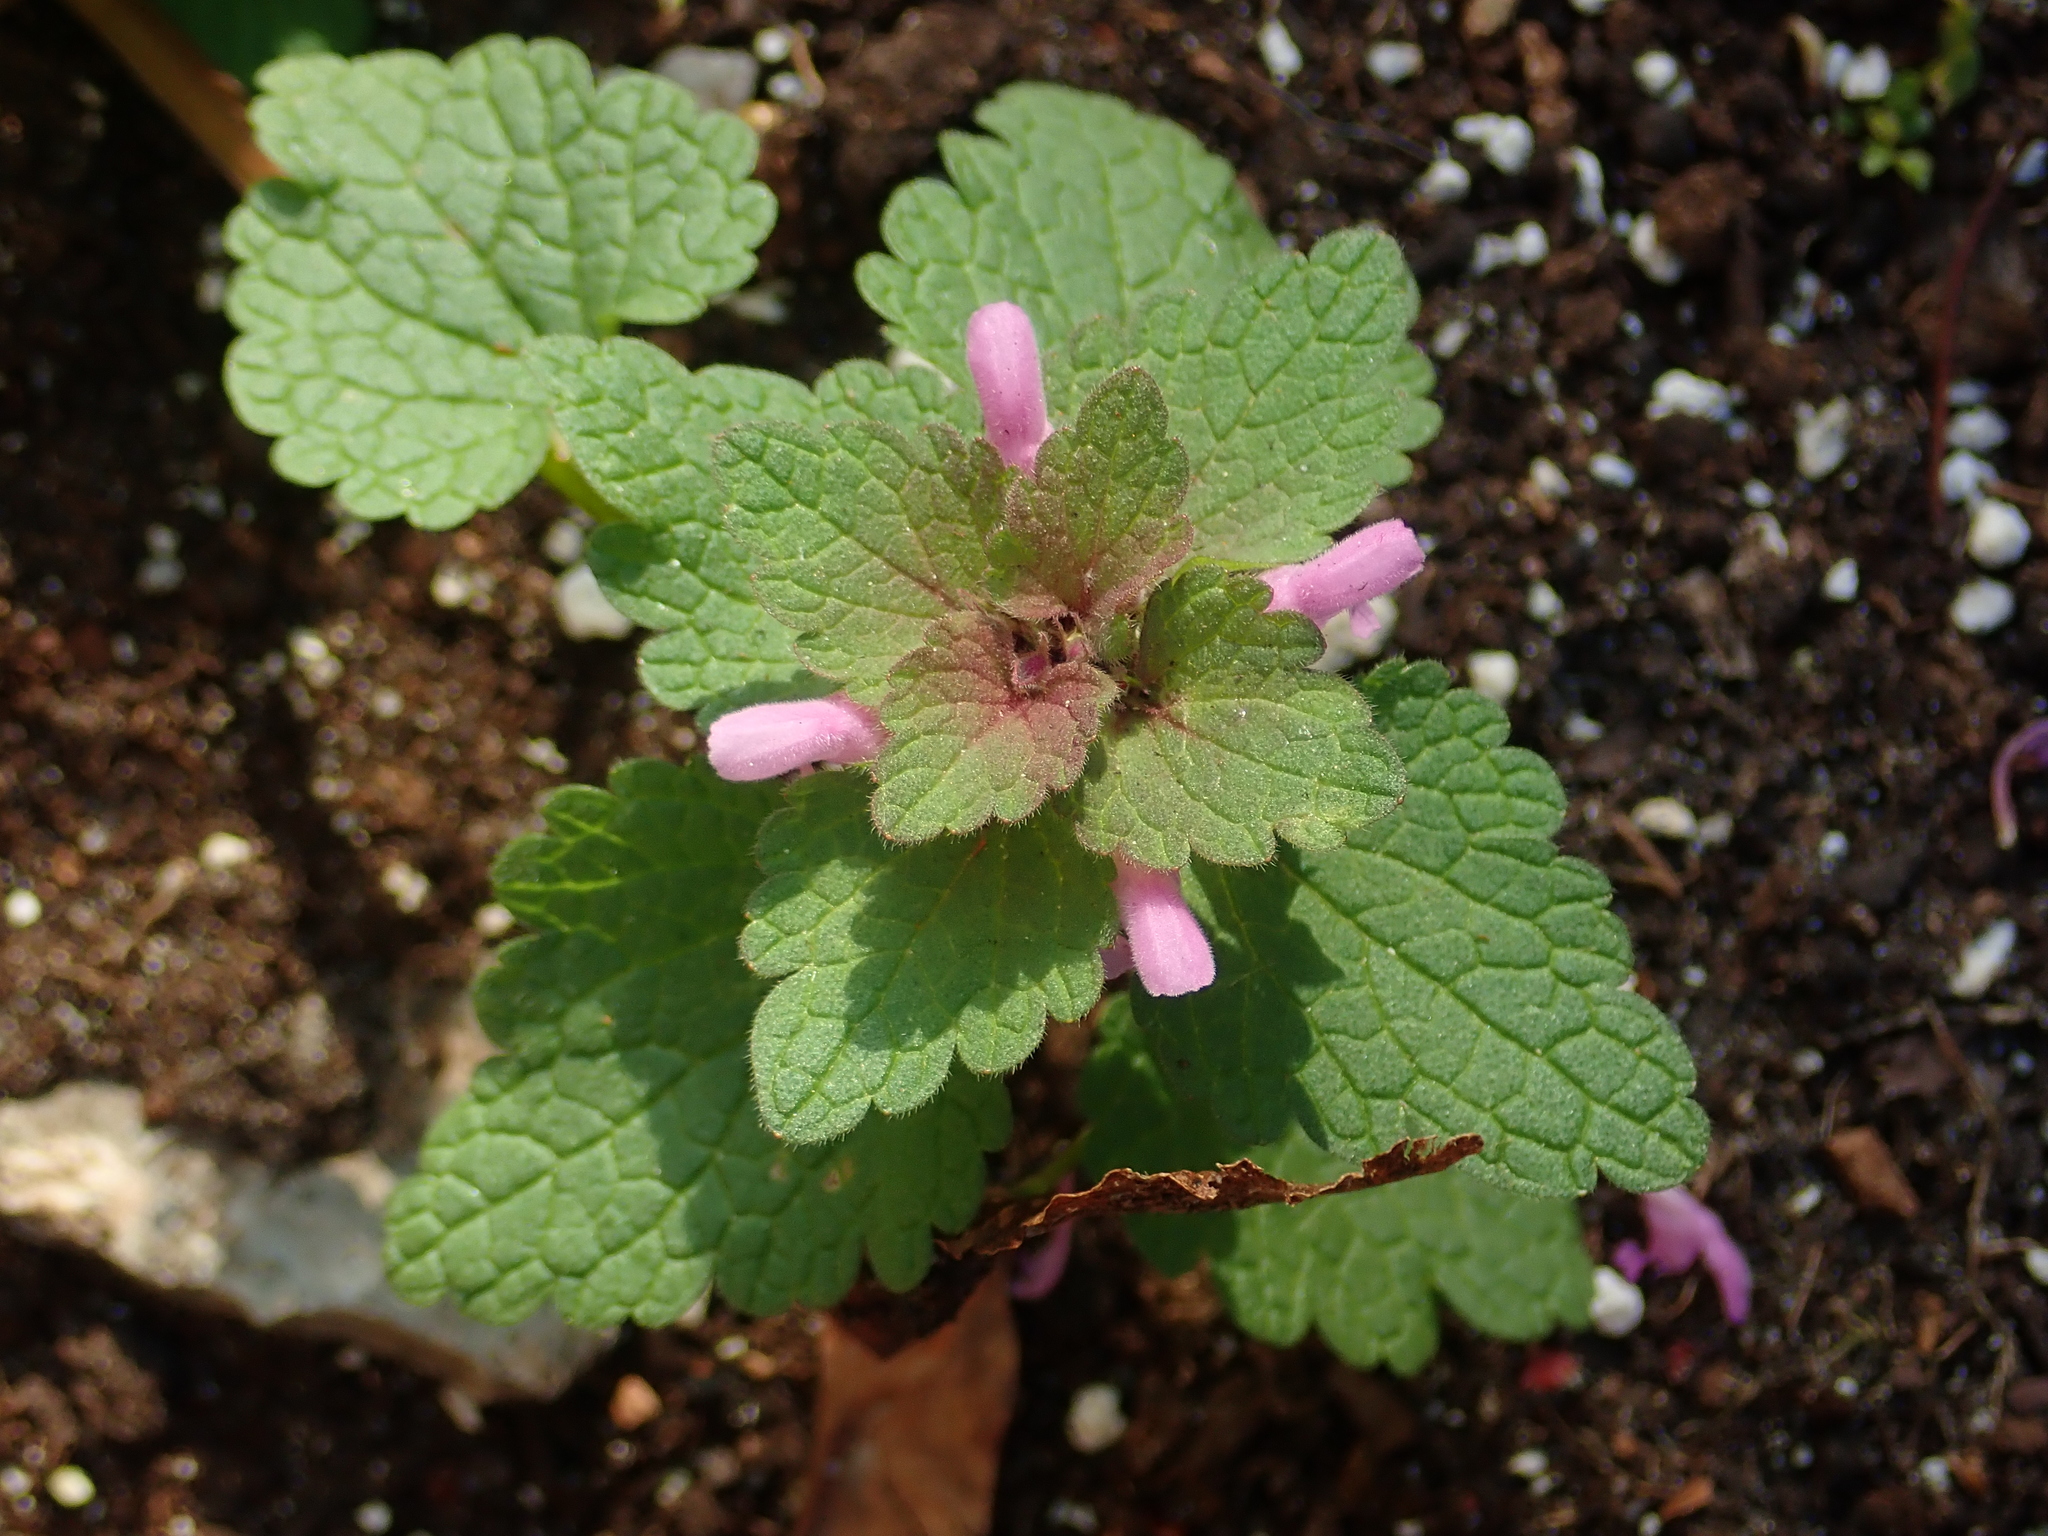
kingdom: Plantae
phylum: Tracheophyta
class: Magnoliopsida
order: Lamiales
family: Lamiaceae
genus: Lamium
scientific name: Lamium purpureum
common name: Red dead-nettle
